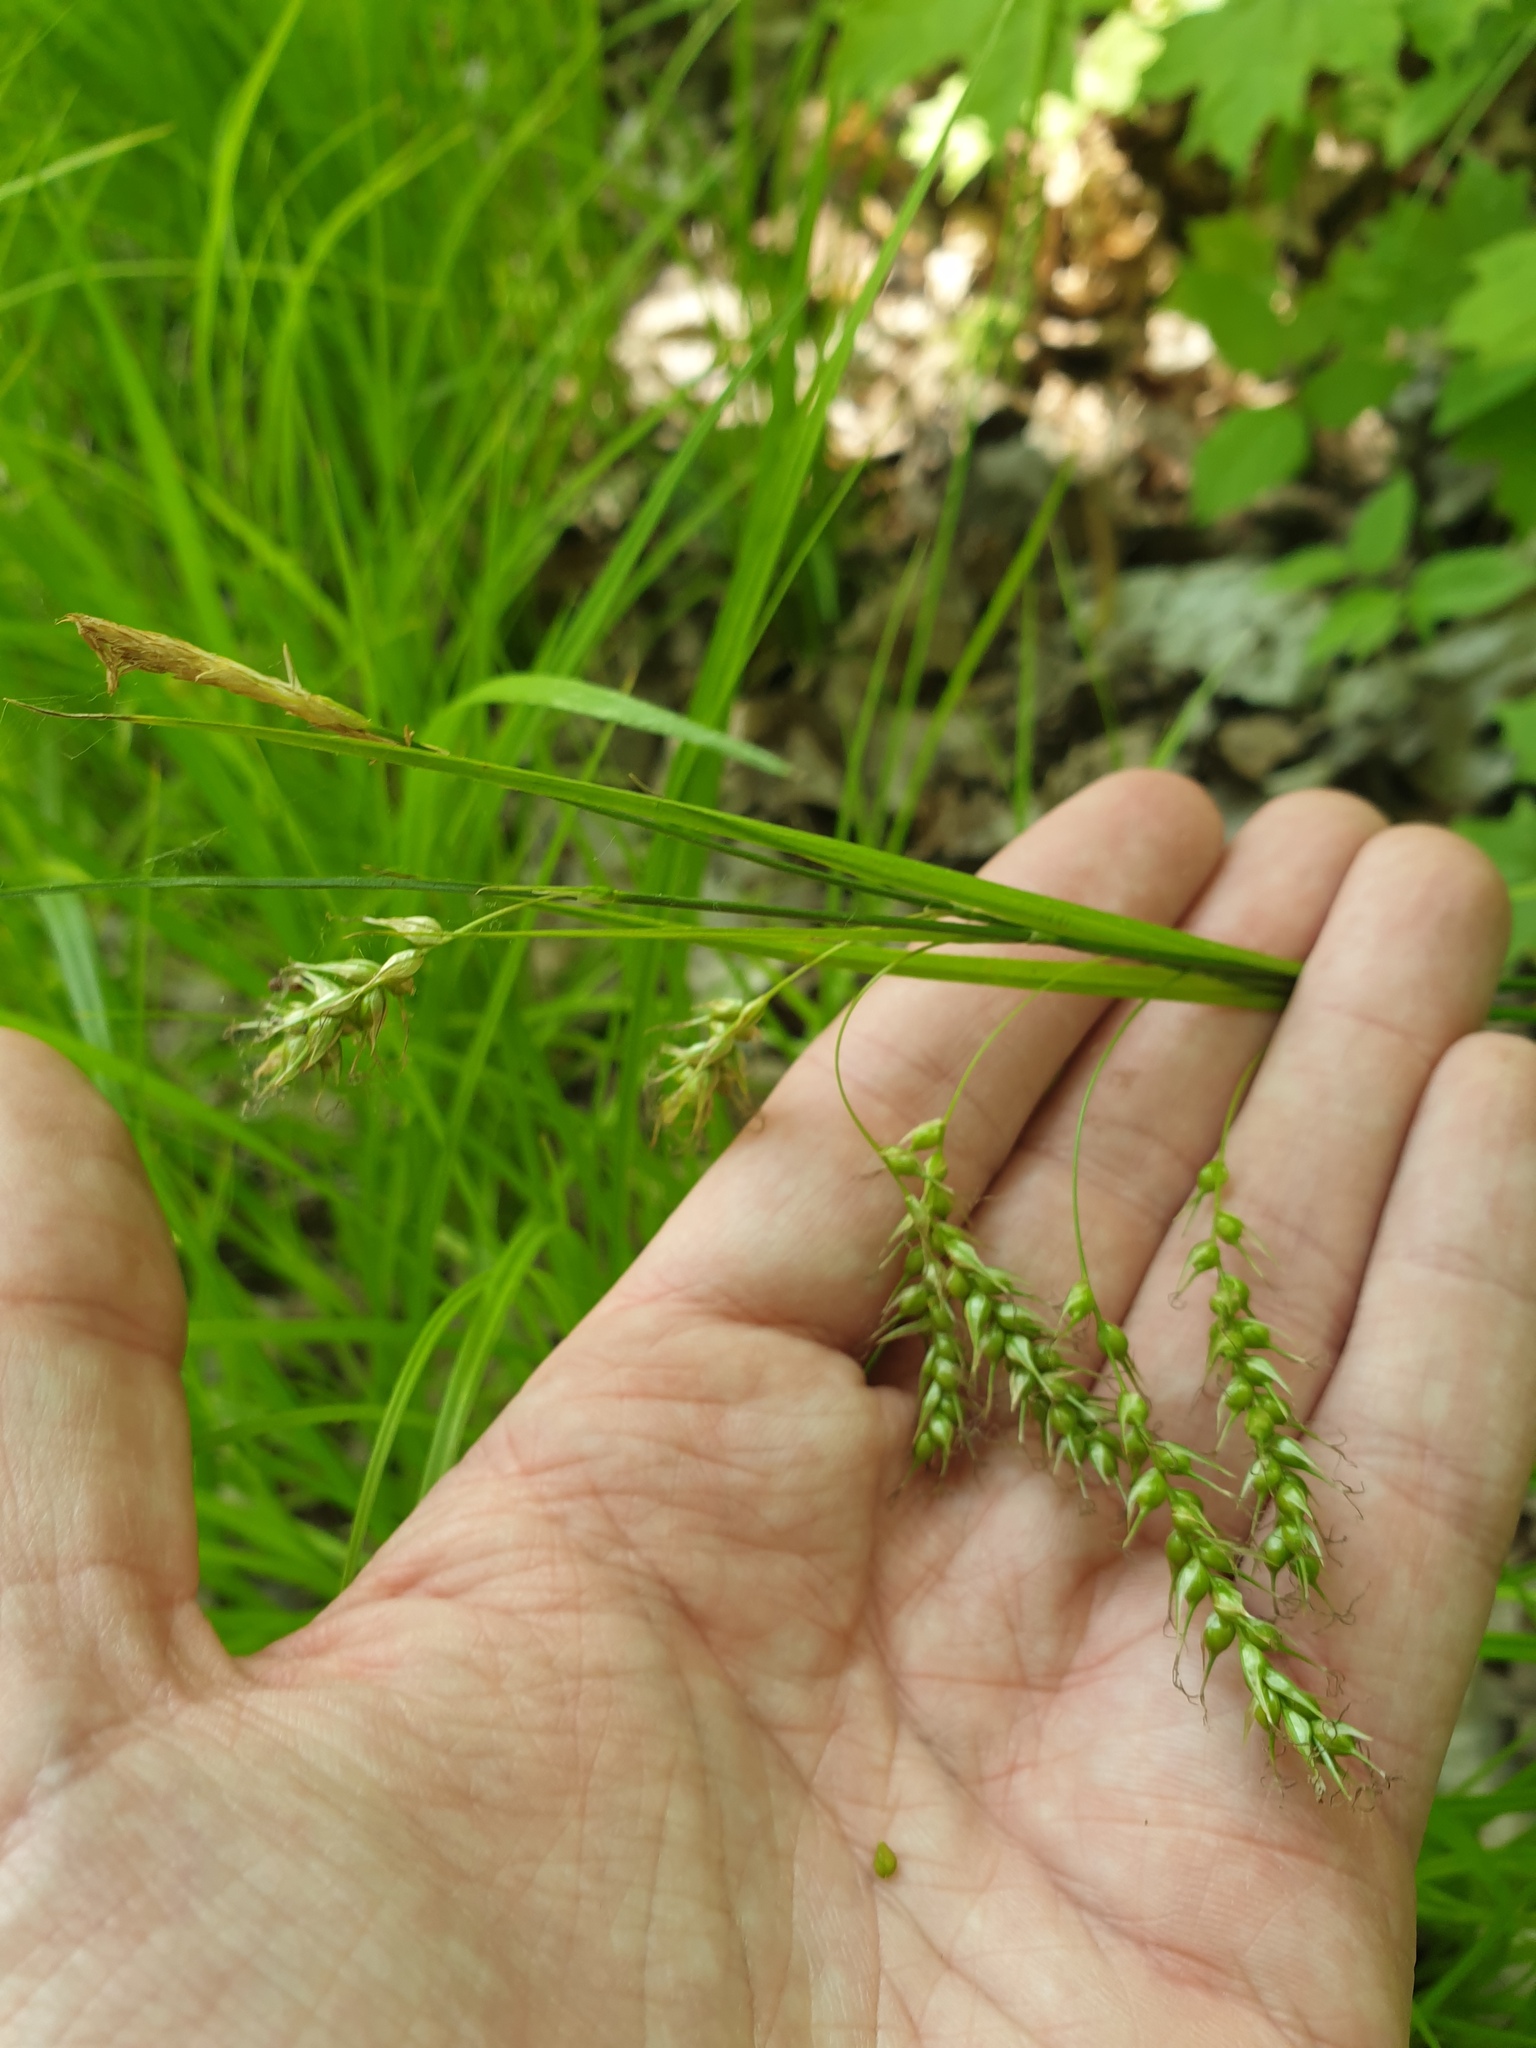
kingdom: Plantae
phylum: Tracheophyta
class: Liliopsida
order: Poales
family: Cyperaceae
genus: Carex
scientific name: Carex sprengelii
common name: Long-beaked sedge
